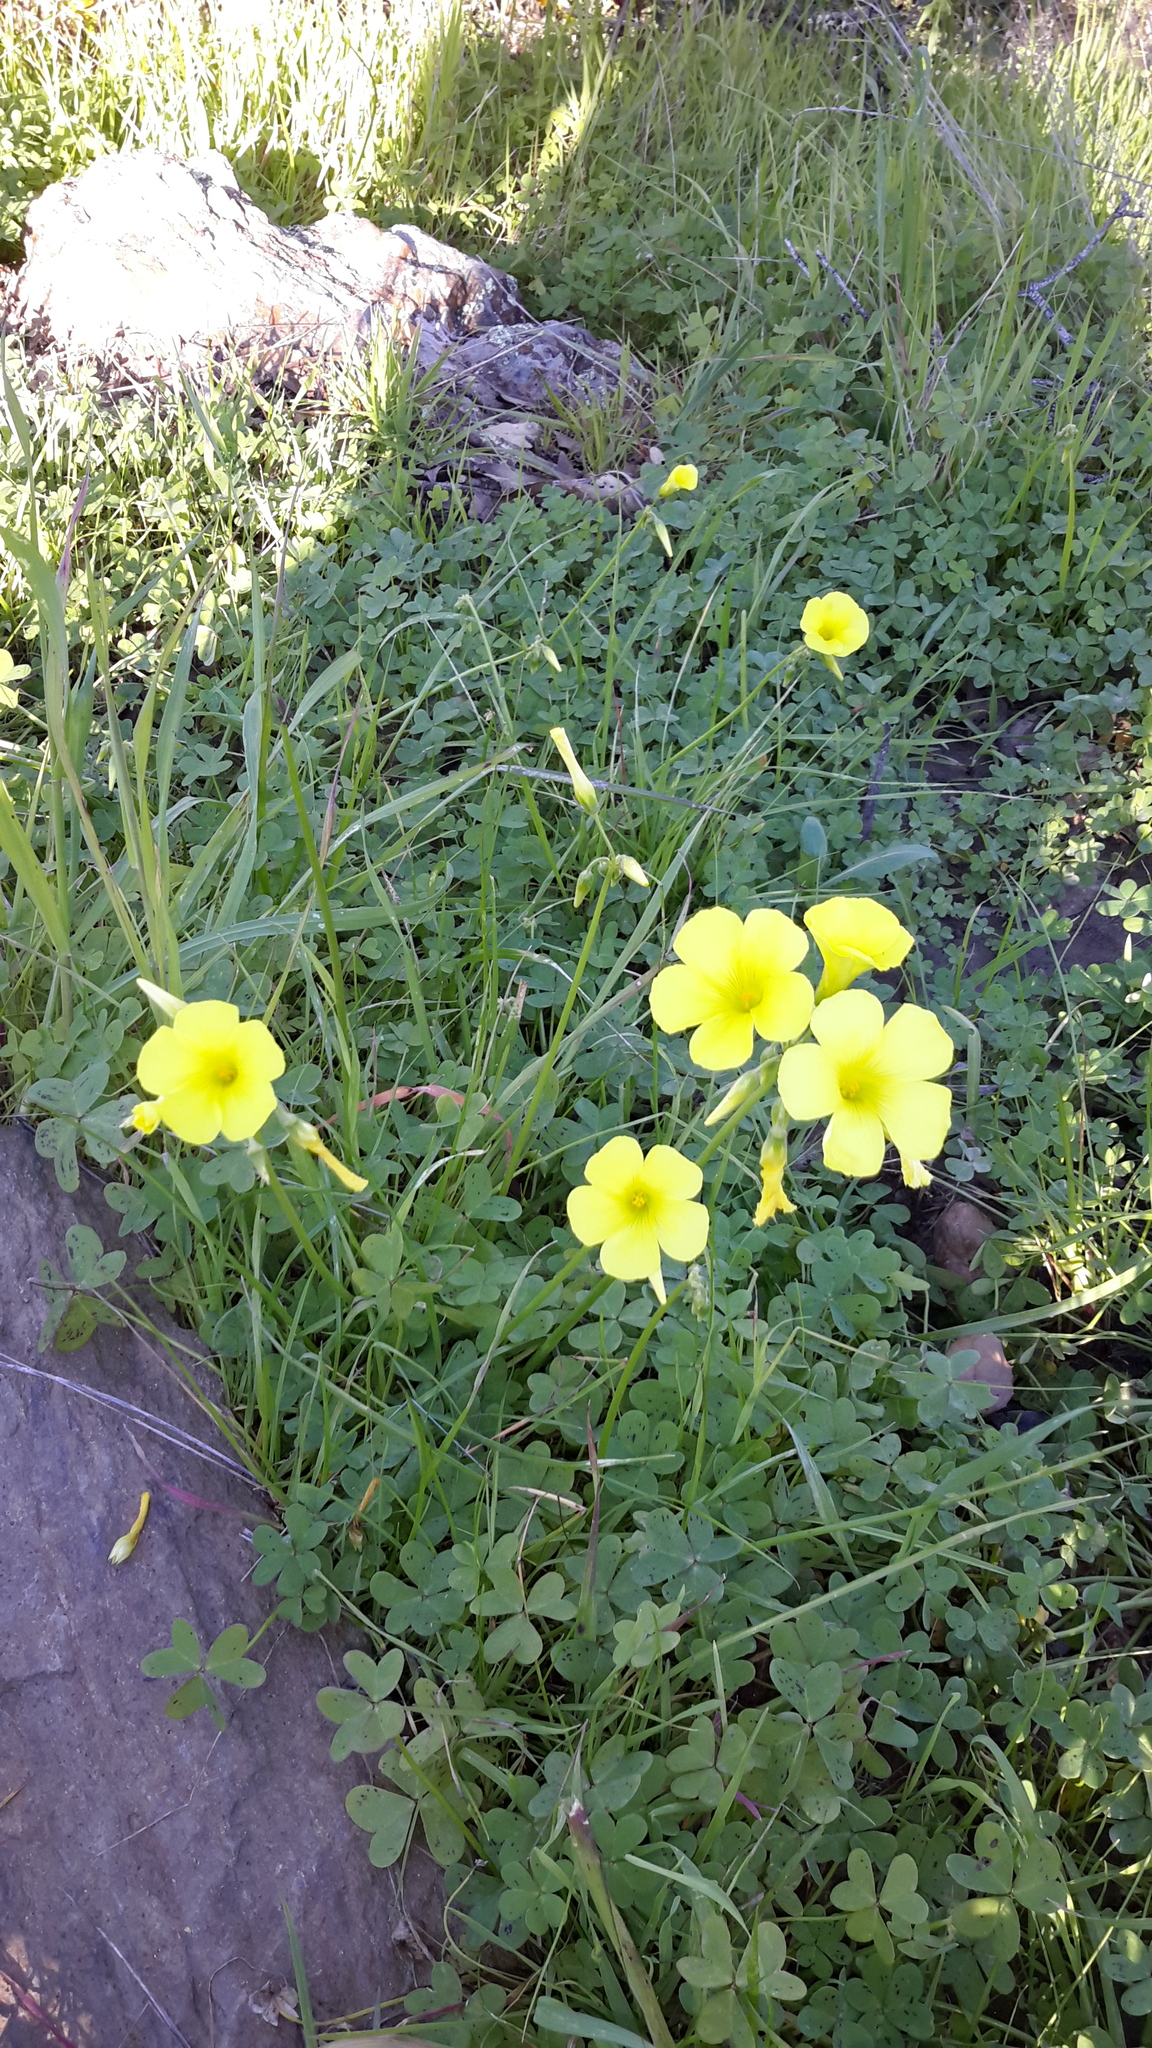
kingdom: Plantae
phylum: Tracheophyta
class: Magnoliopsida
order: Oxalidales
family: Oxalidaceae
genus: Oxalis
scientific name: Oxalis pes-caprae
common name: Bermuda-buttercup
